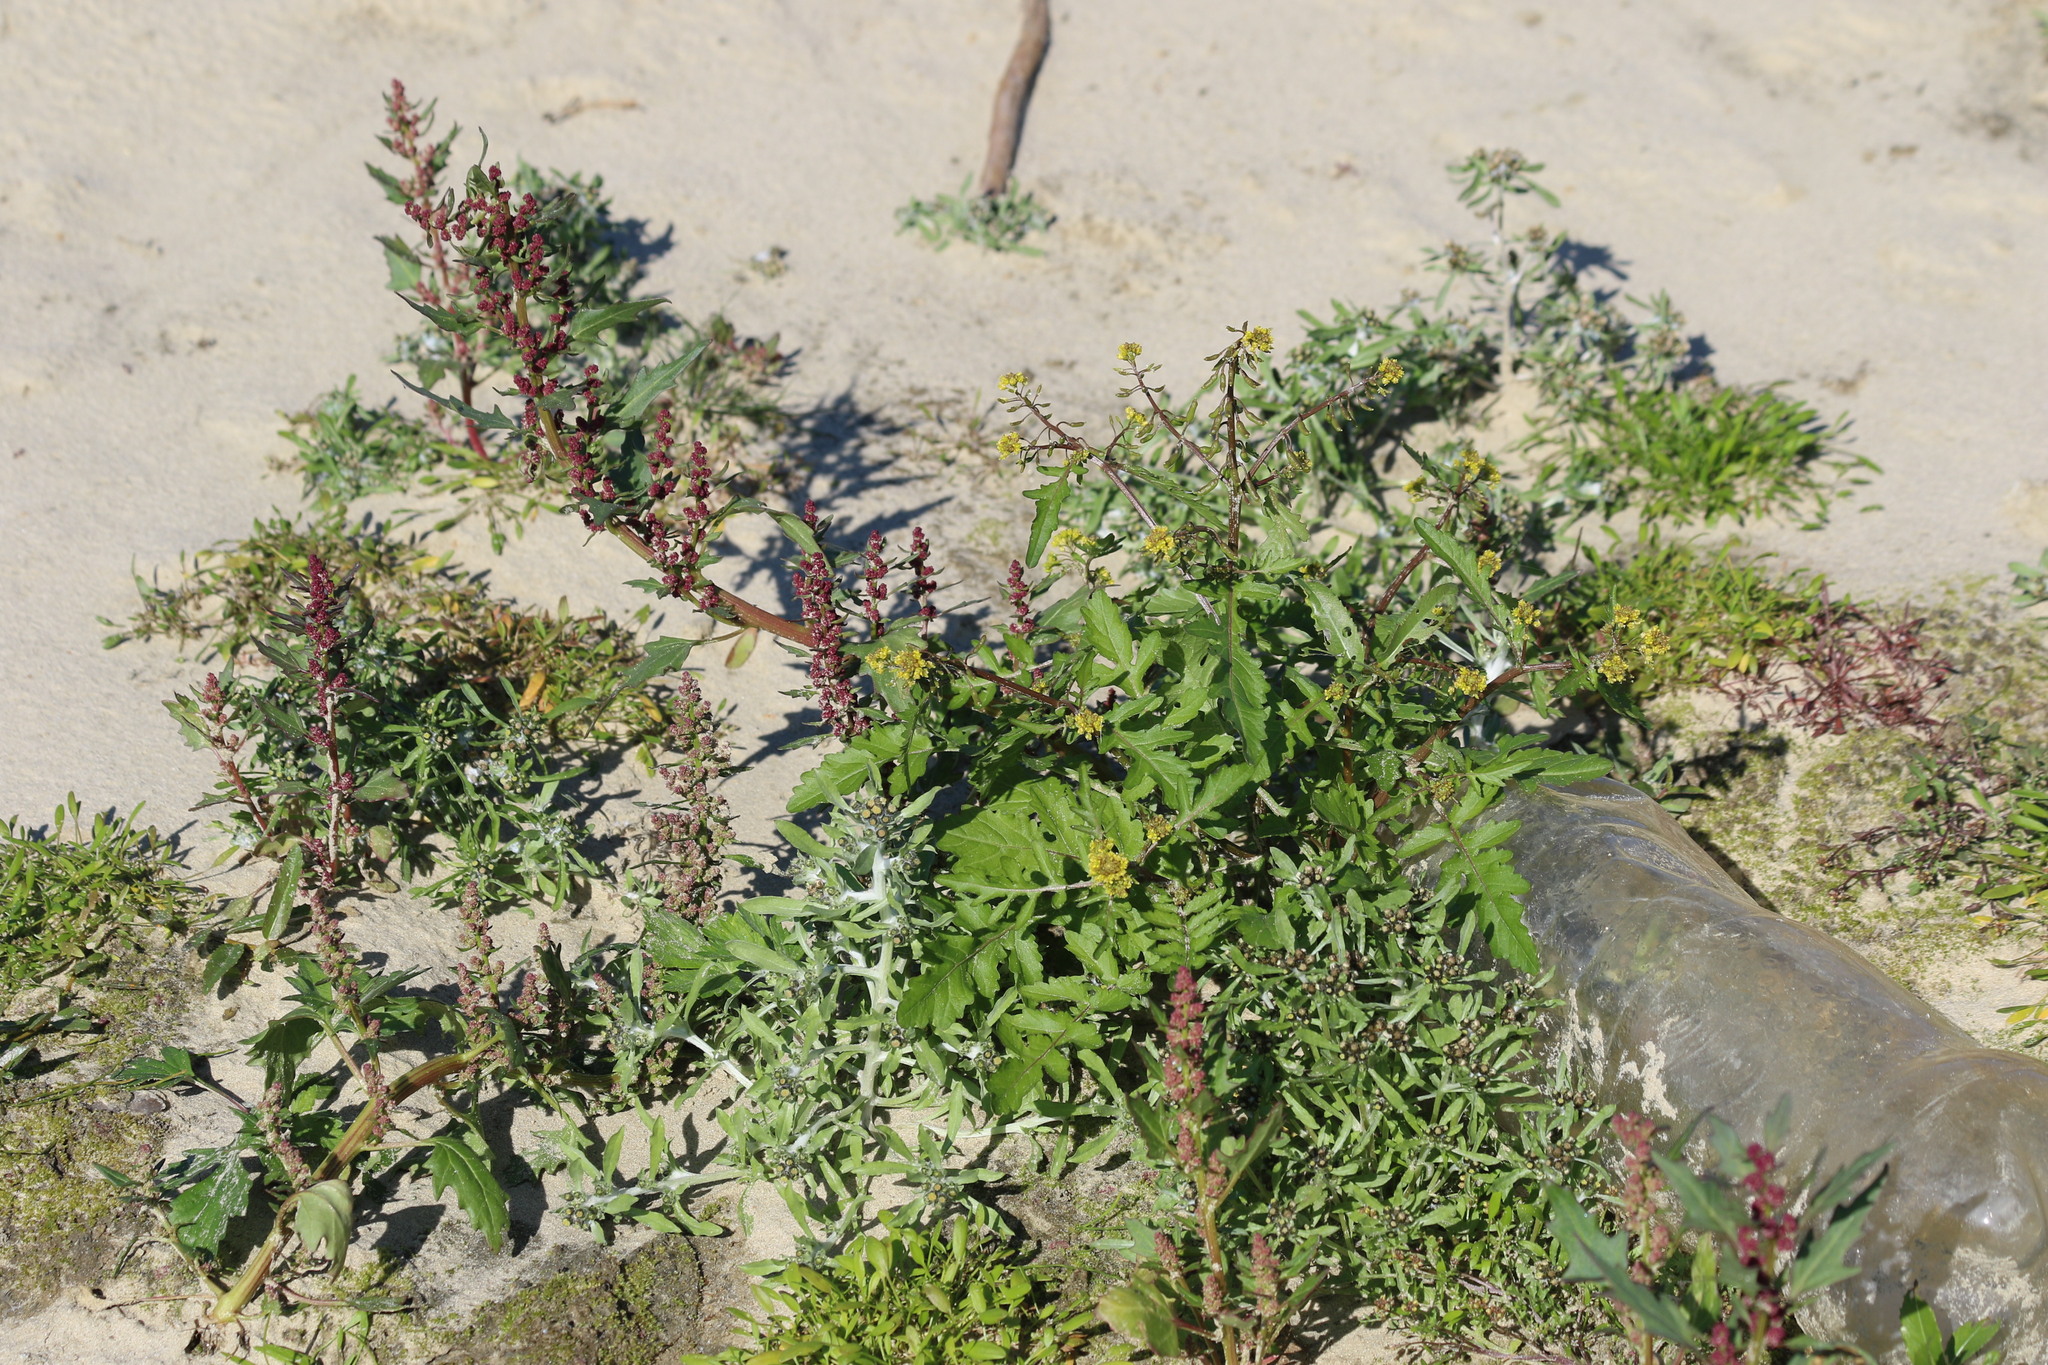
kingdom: Plantae
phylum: Tracheophyta
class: Magnoliopsida
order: Brassicales
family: Brassicaceae
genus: Rorippa
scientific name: Rorippa palustris
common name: Marsh yellow-cress
